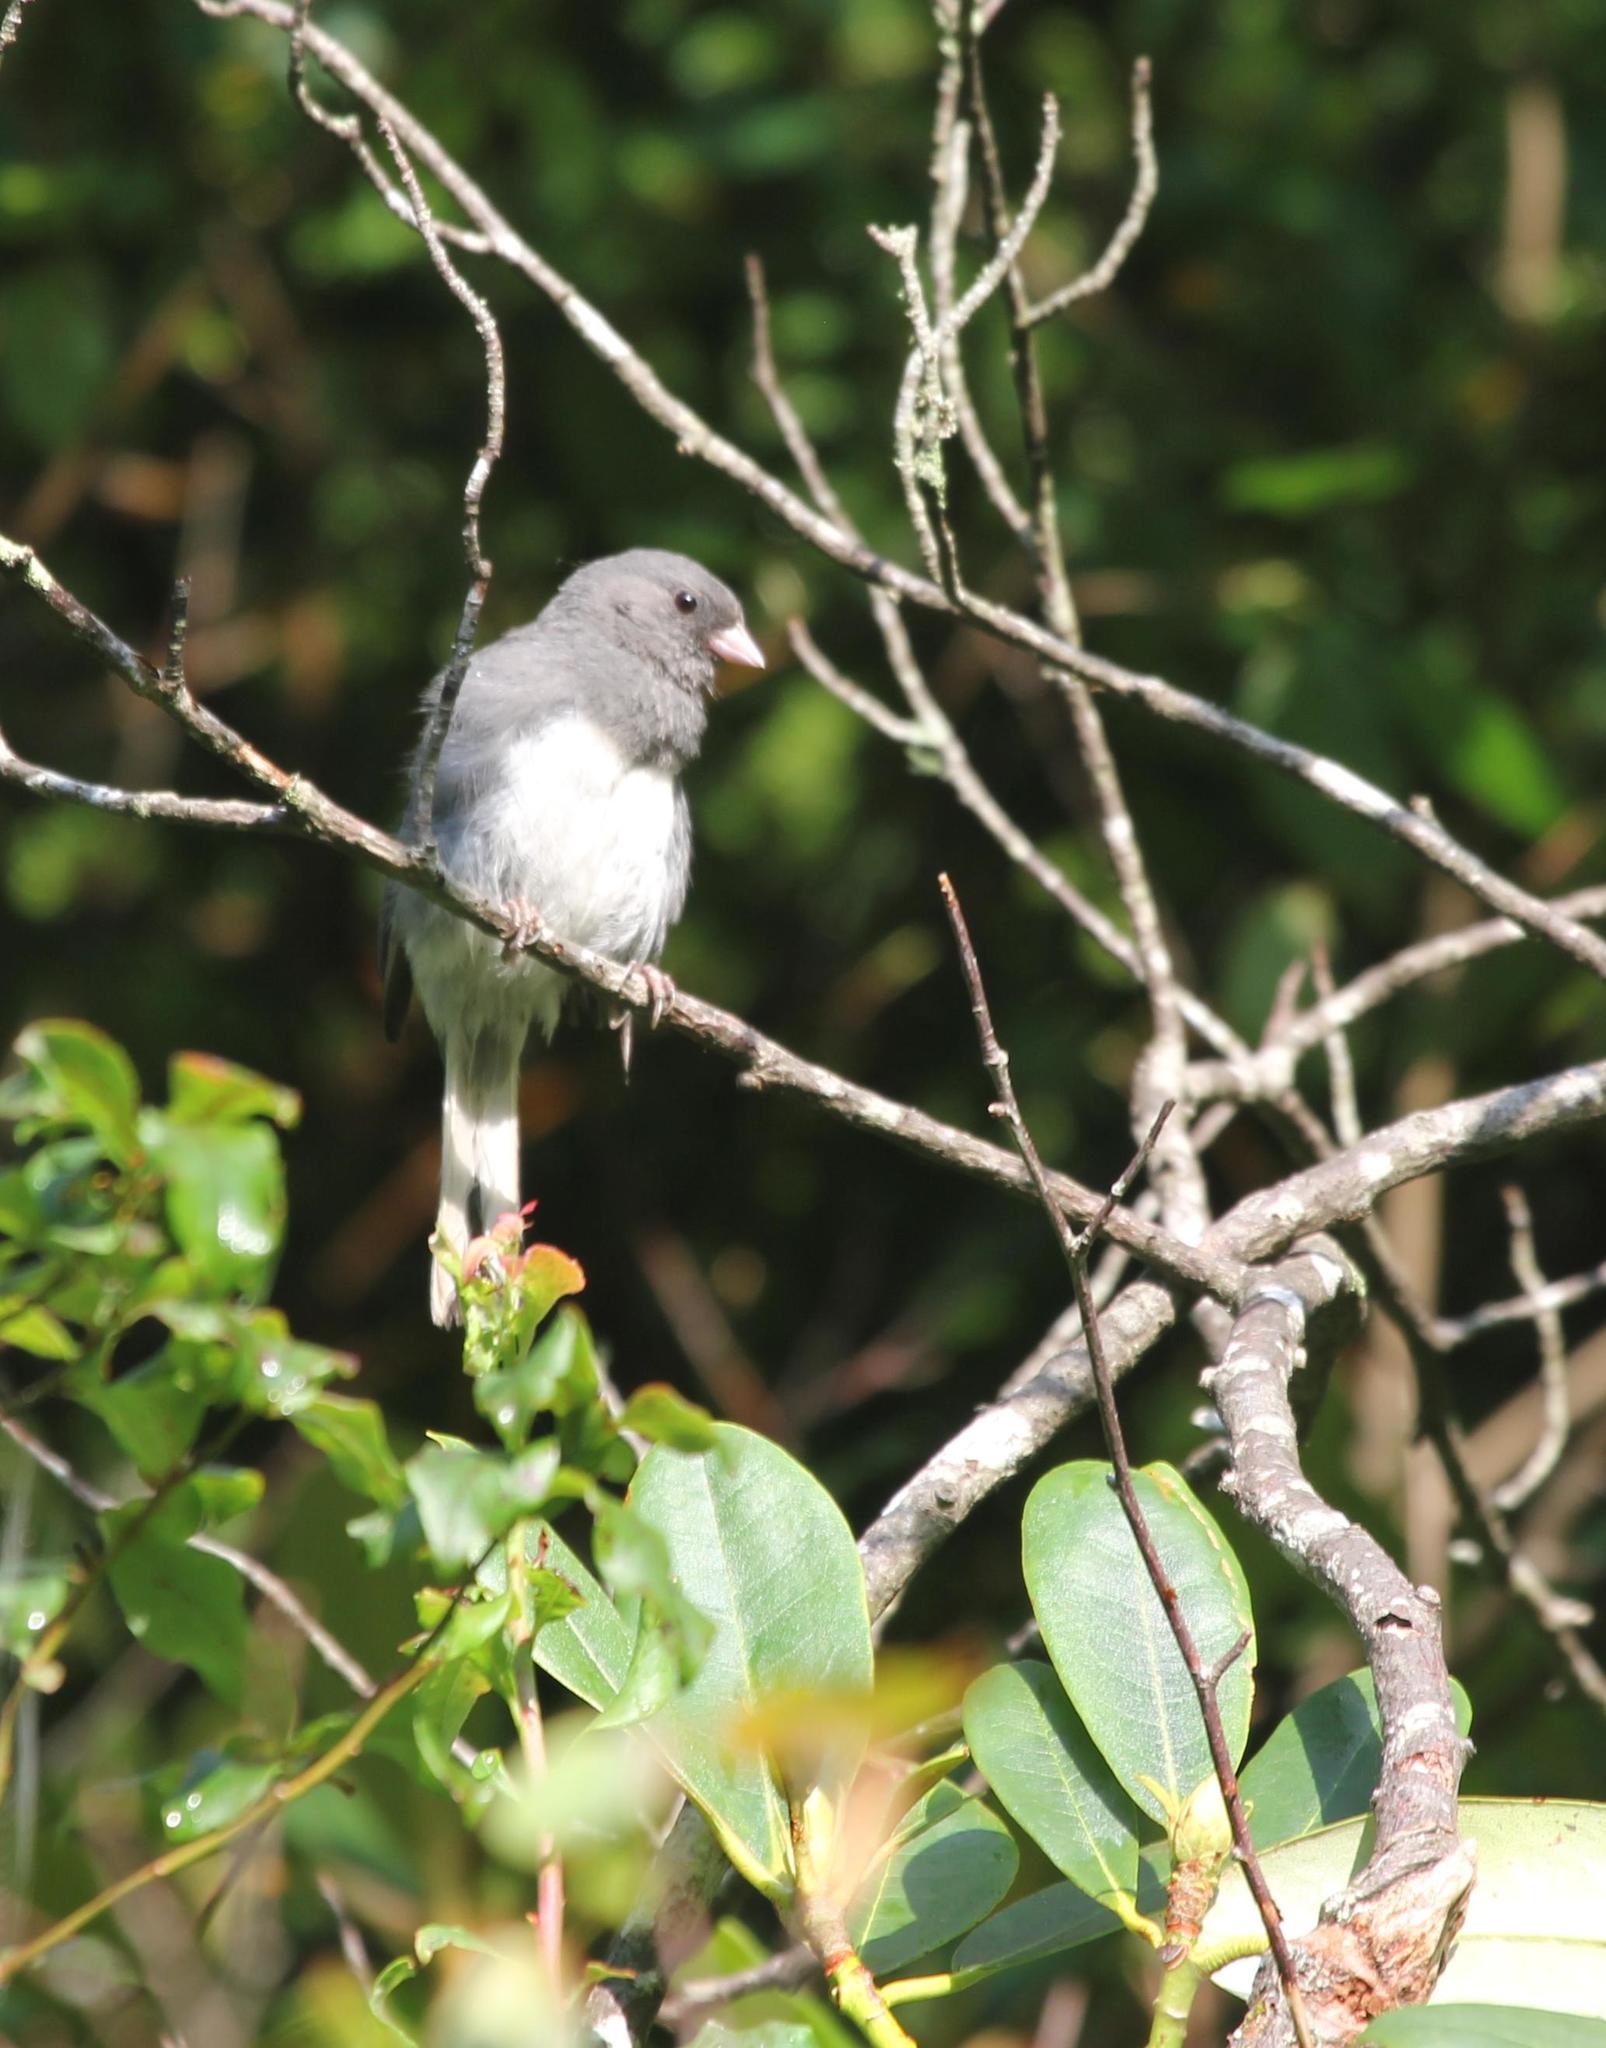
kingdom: Animalia
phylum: Chordata
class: Aves
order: Passeriformes
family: Passerellidae
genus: Junco
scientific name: Junco hyemalis
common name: Dark-eyed junco
